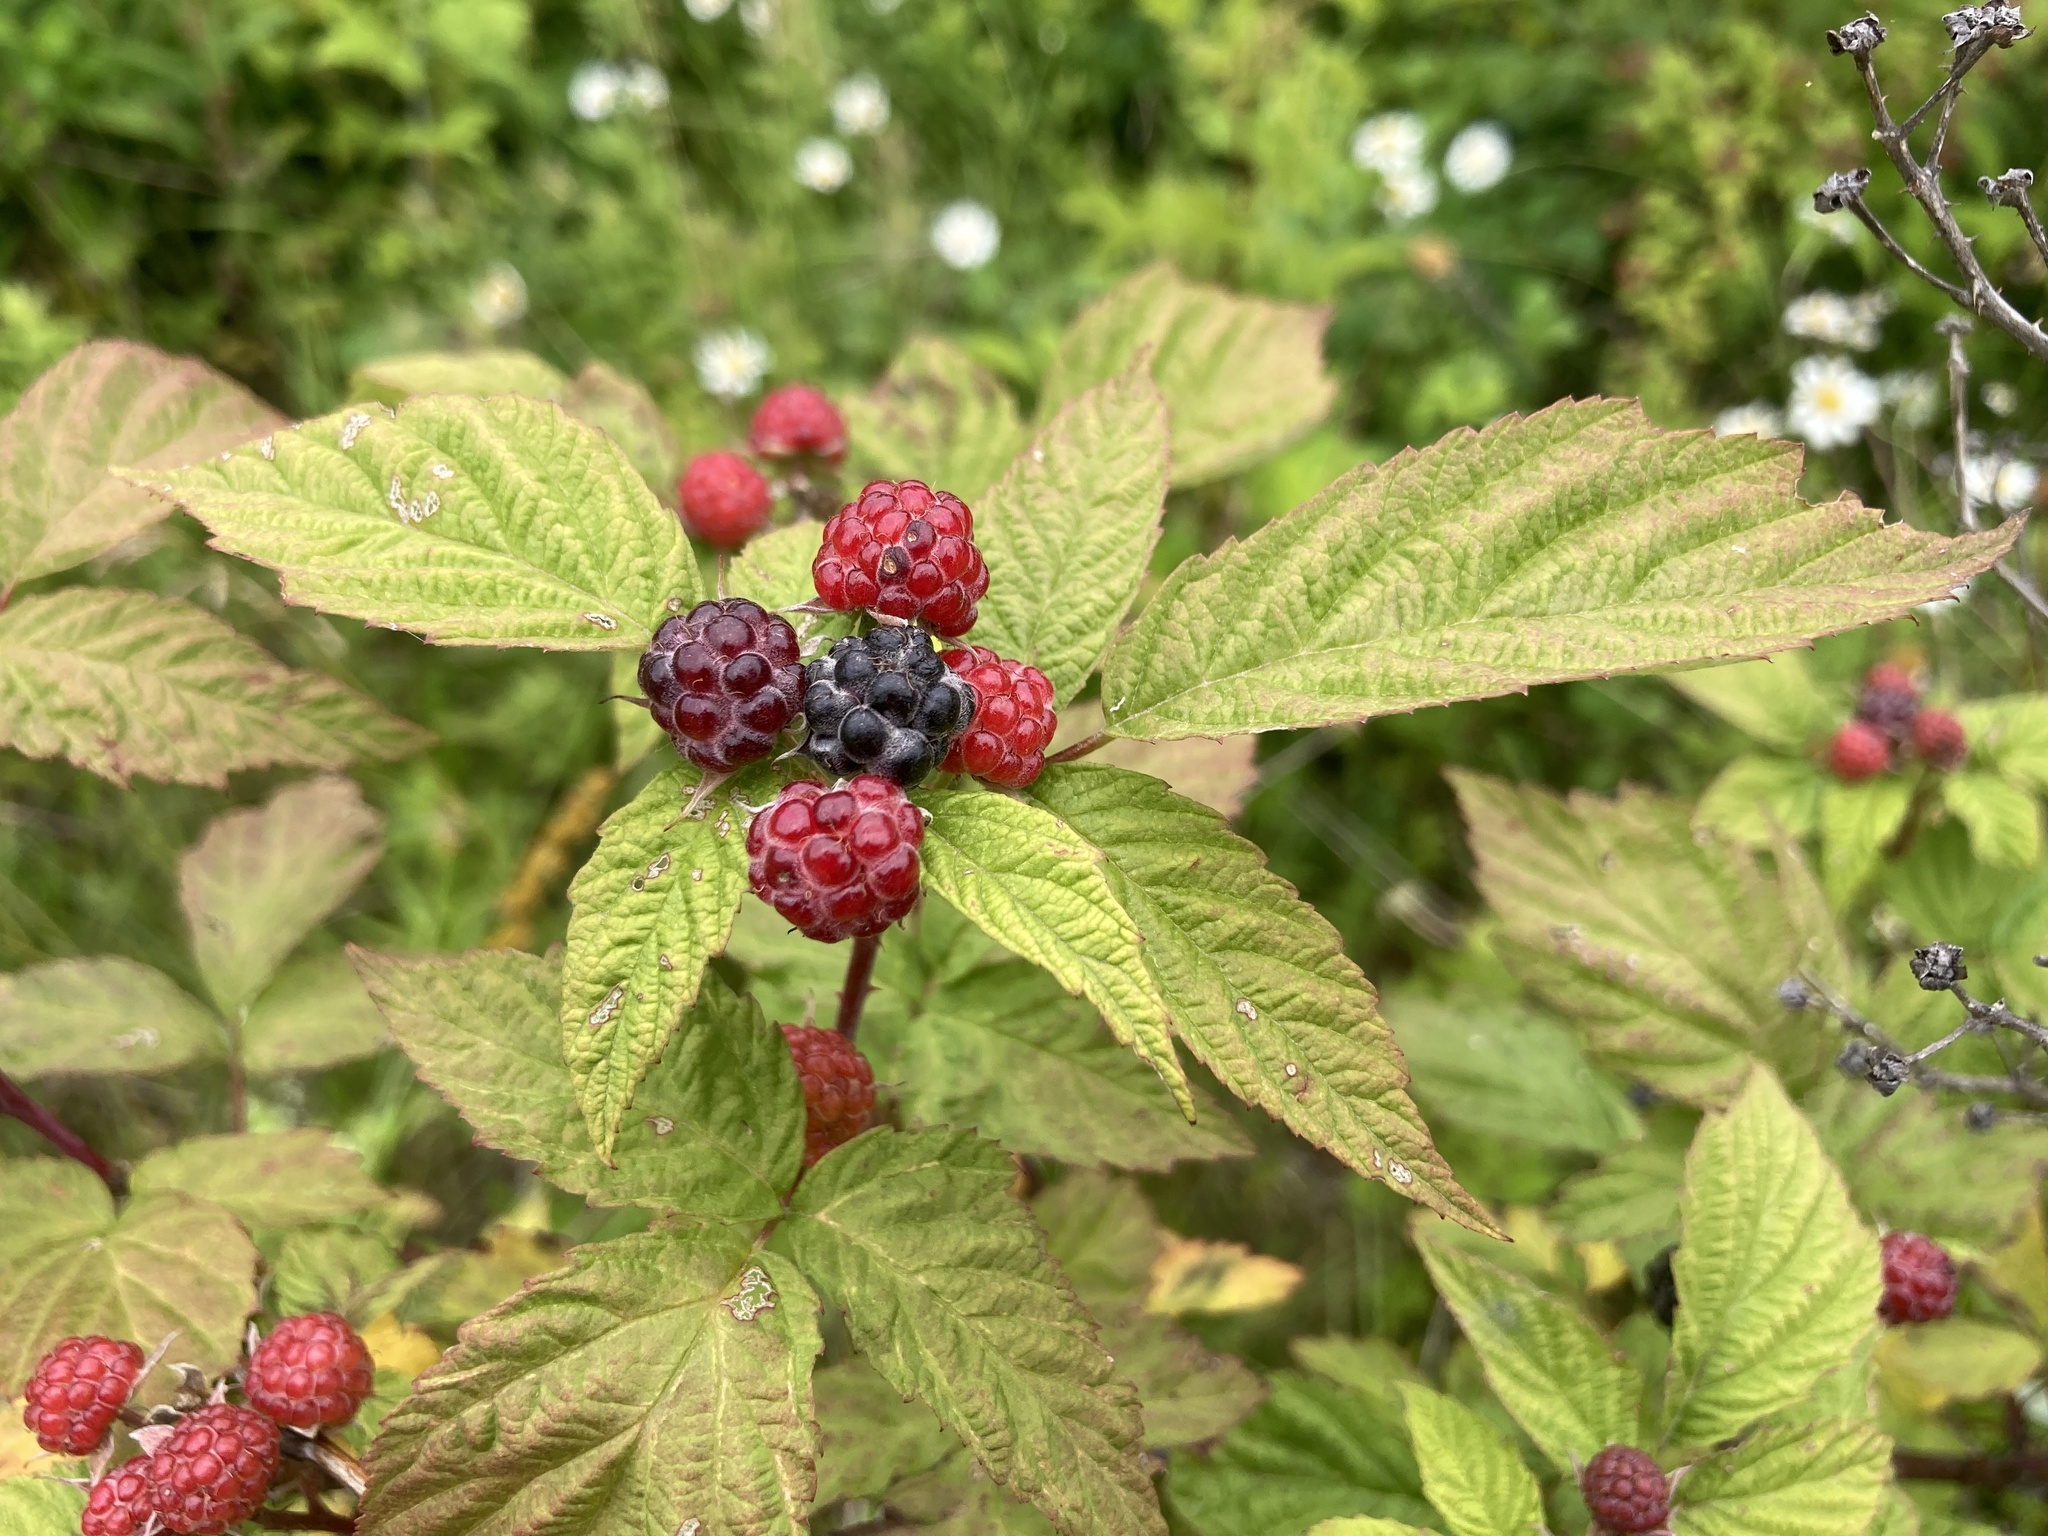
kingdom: Plantae
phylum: Tracheophyta
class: Magnoliopsida
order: Rosales
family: Rosaceae
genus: Rubus
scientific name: Rubus occidentalis
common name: Black raspberry
